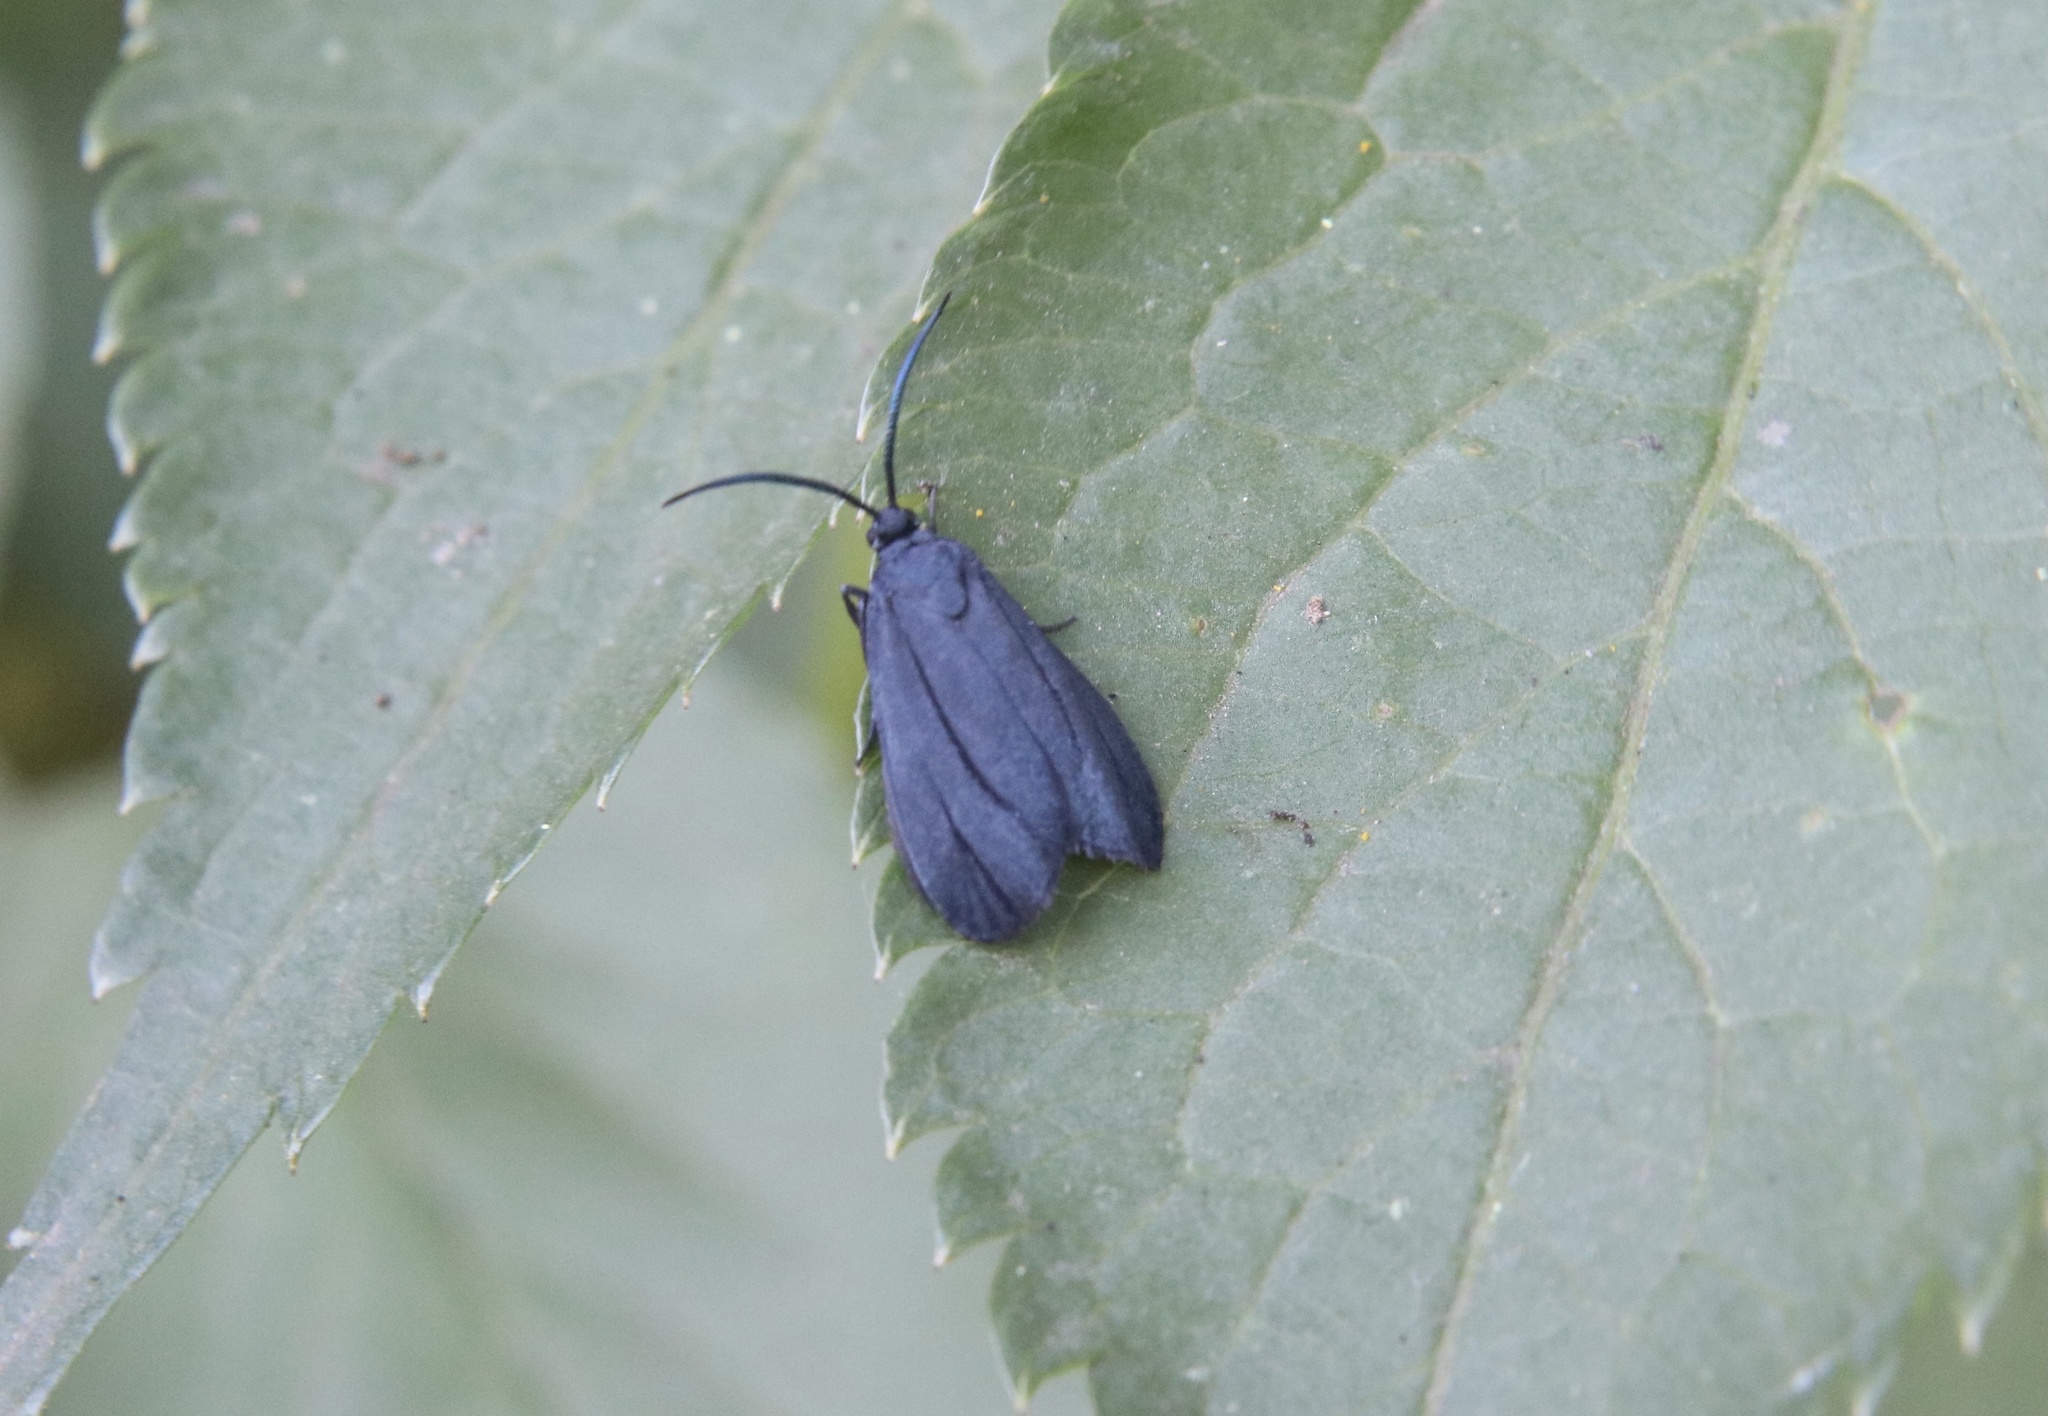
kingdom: Animalia
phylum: Arthropoda
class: Insecta
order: Lepidoptera
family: Zygaenidae
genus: Malamblia
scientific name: Malamblia
